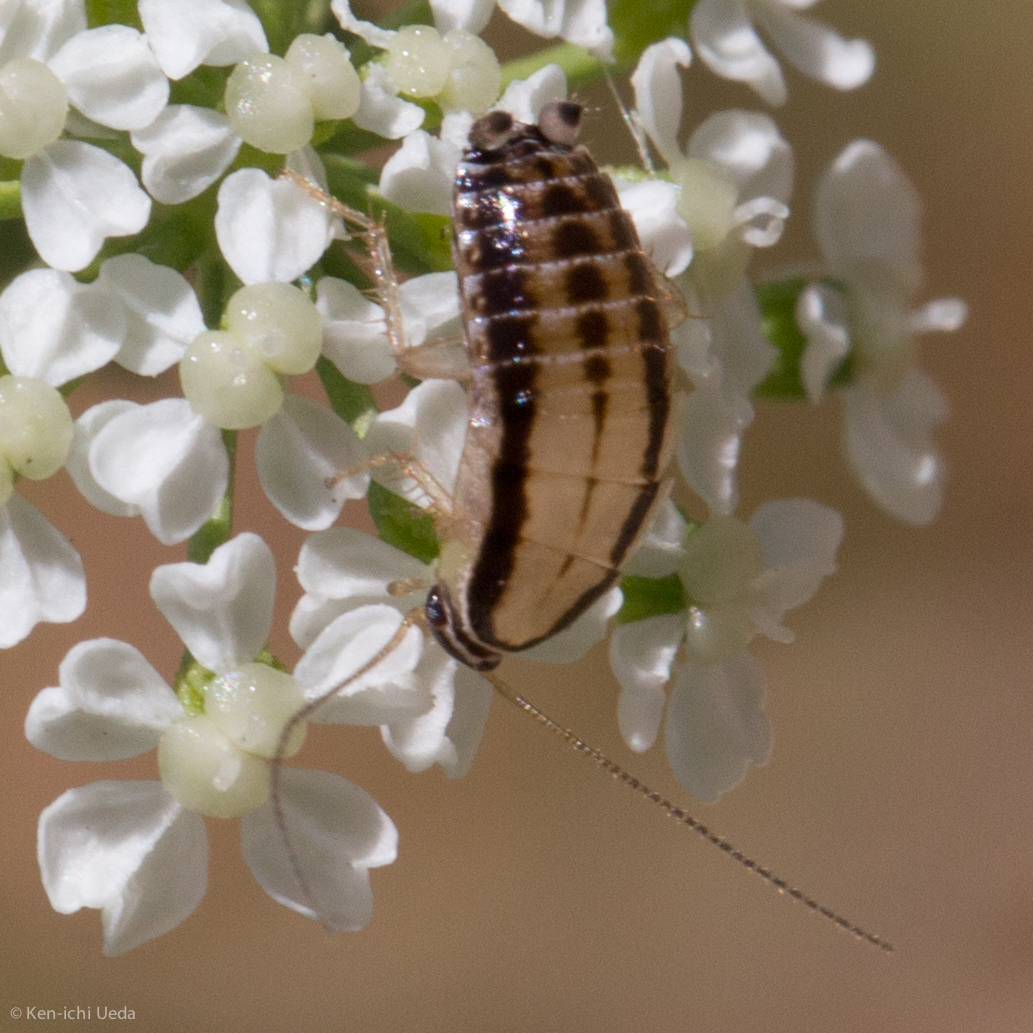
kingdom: Animalia
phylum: Arthropoda
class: Insecta
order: Blattodea
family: Ectobiidae
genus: Luridiblatta
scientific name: Luridiblatta trivittata
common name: Three-lined cockroach
